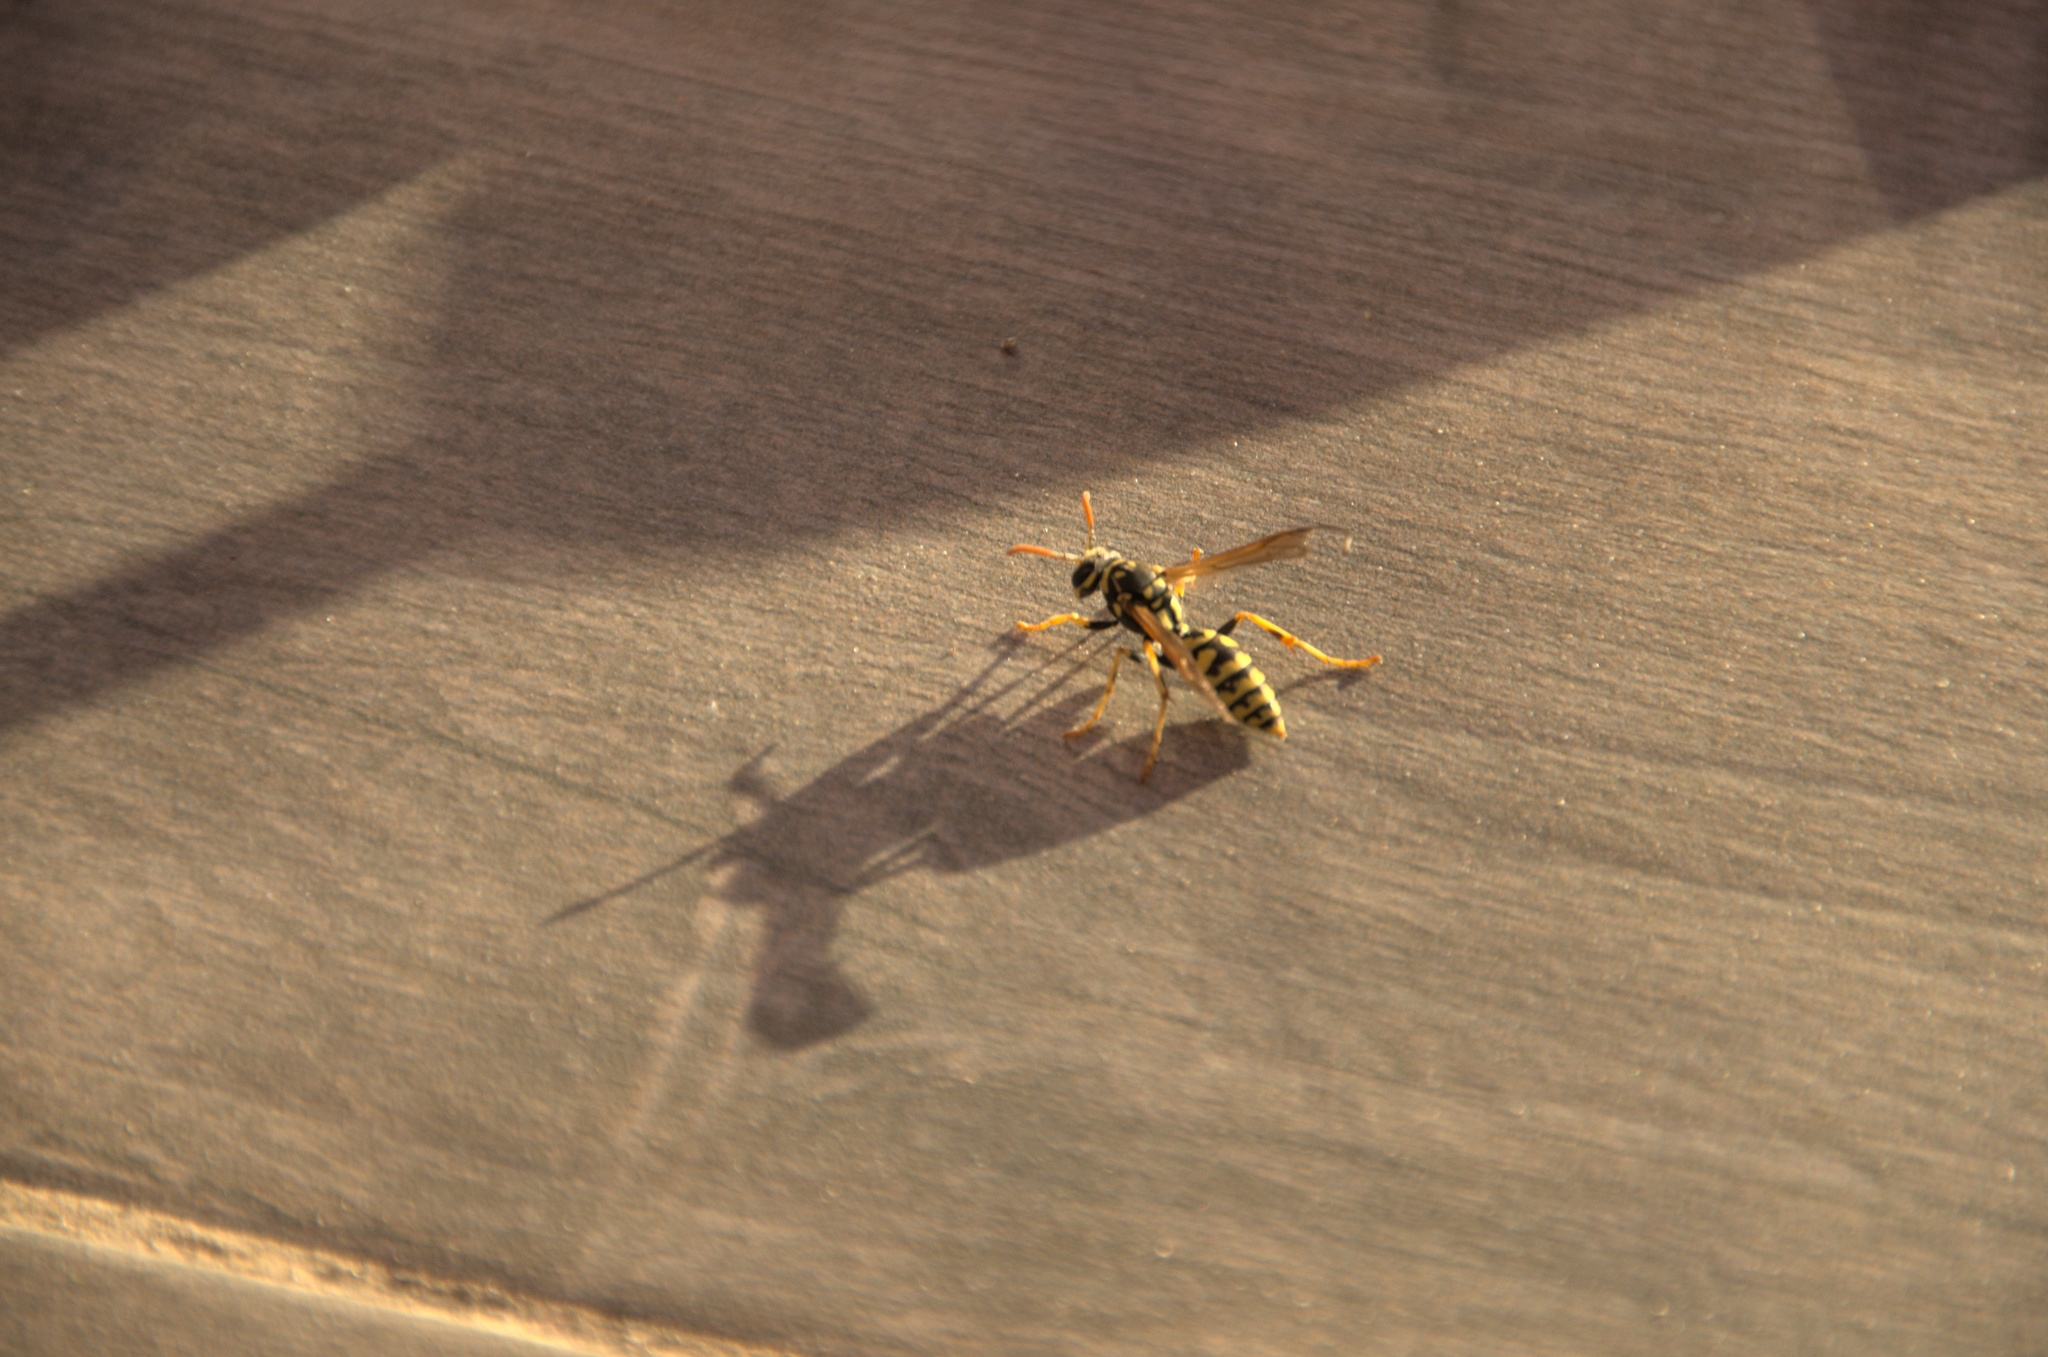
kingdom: Animalia
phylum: Arthropoda
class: Insecta
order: Hymenoptera
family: Eumenidae
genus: Polistes
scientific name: Polistes dominula
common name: Paper wasp
